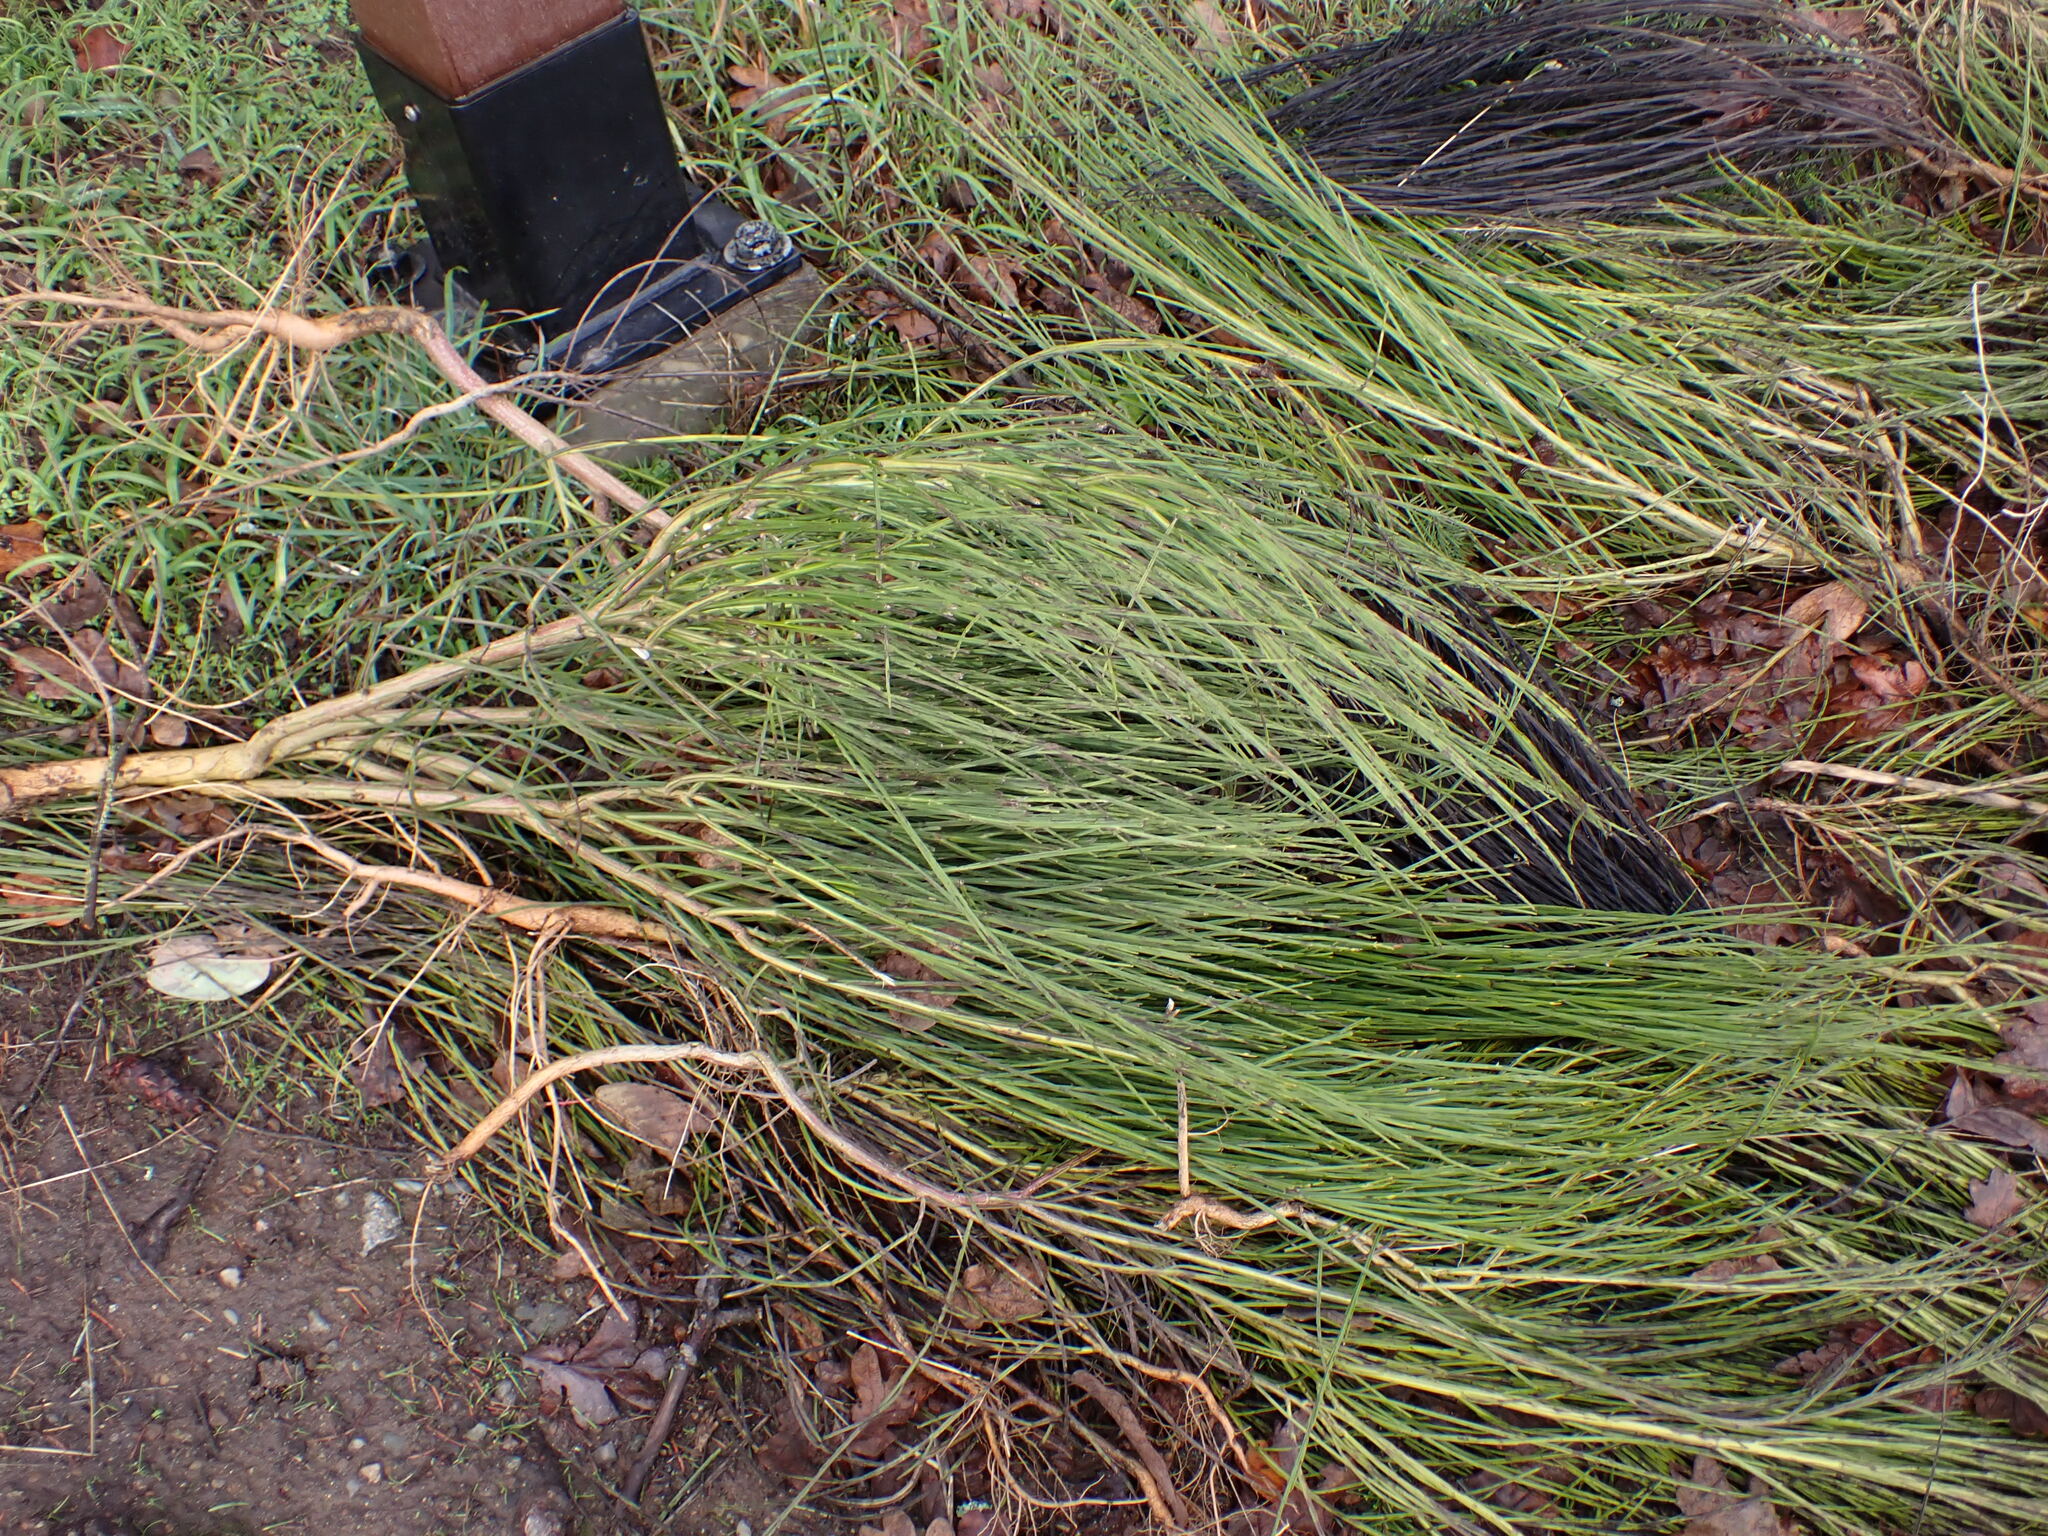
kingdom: Plantae
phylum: Tracheophyta
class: Magnoliopsida
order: Fabales
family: Fabaceae
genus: Cytisus
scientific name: Cytisus scoparius
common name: Scotch broom
